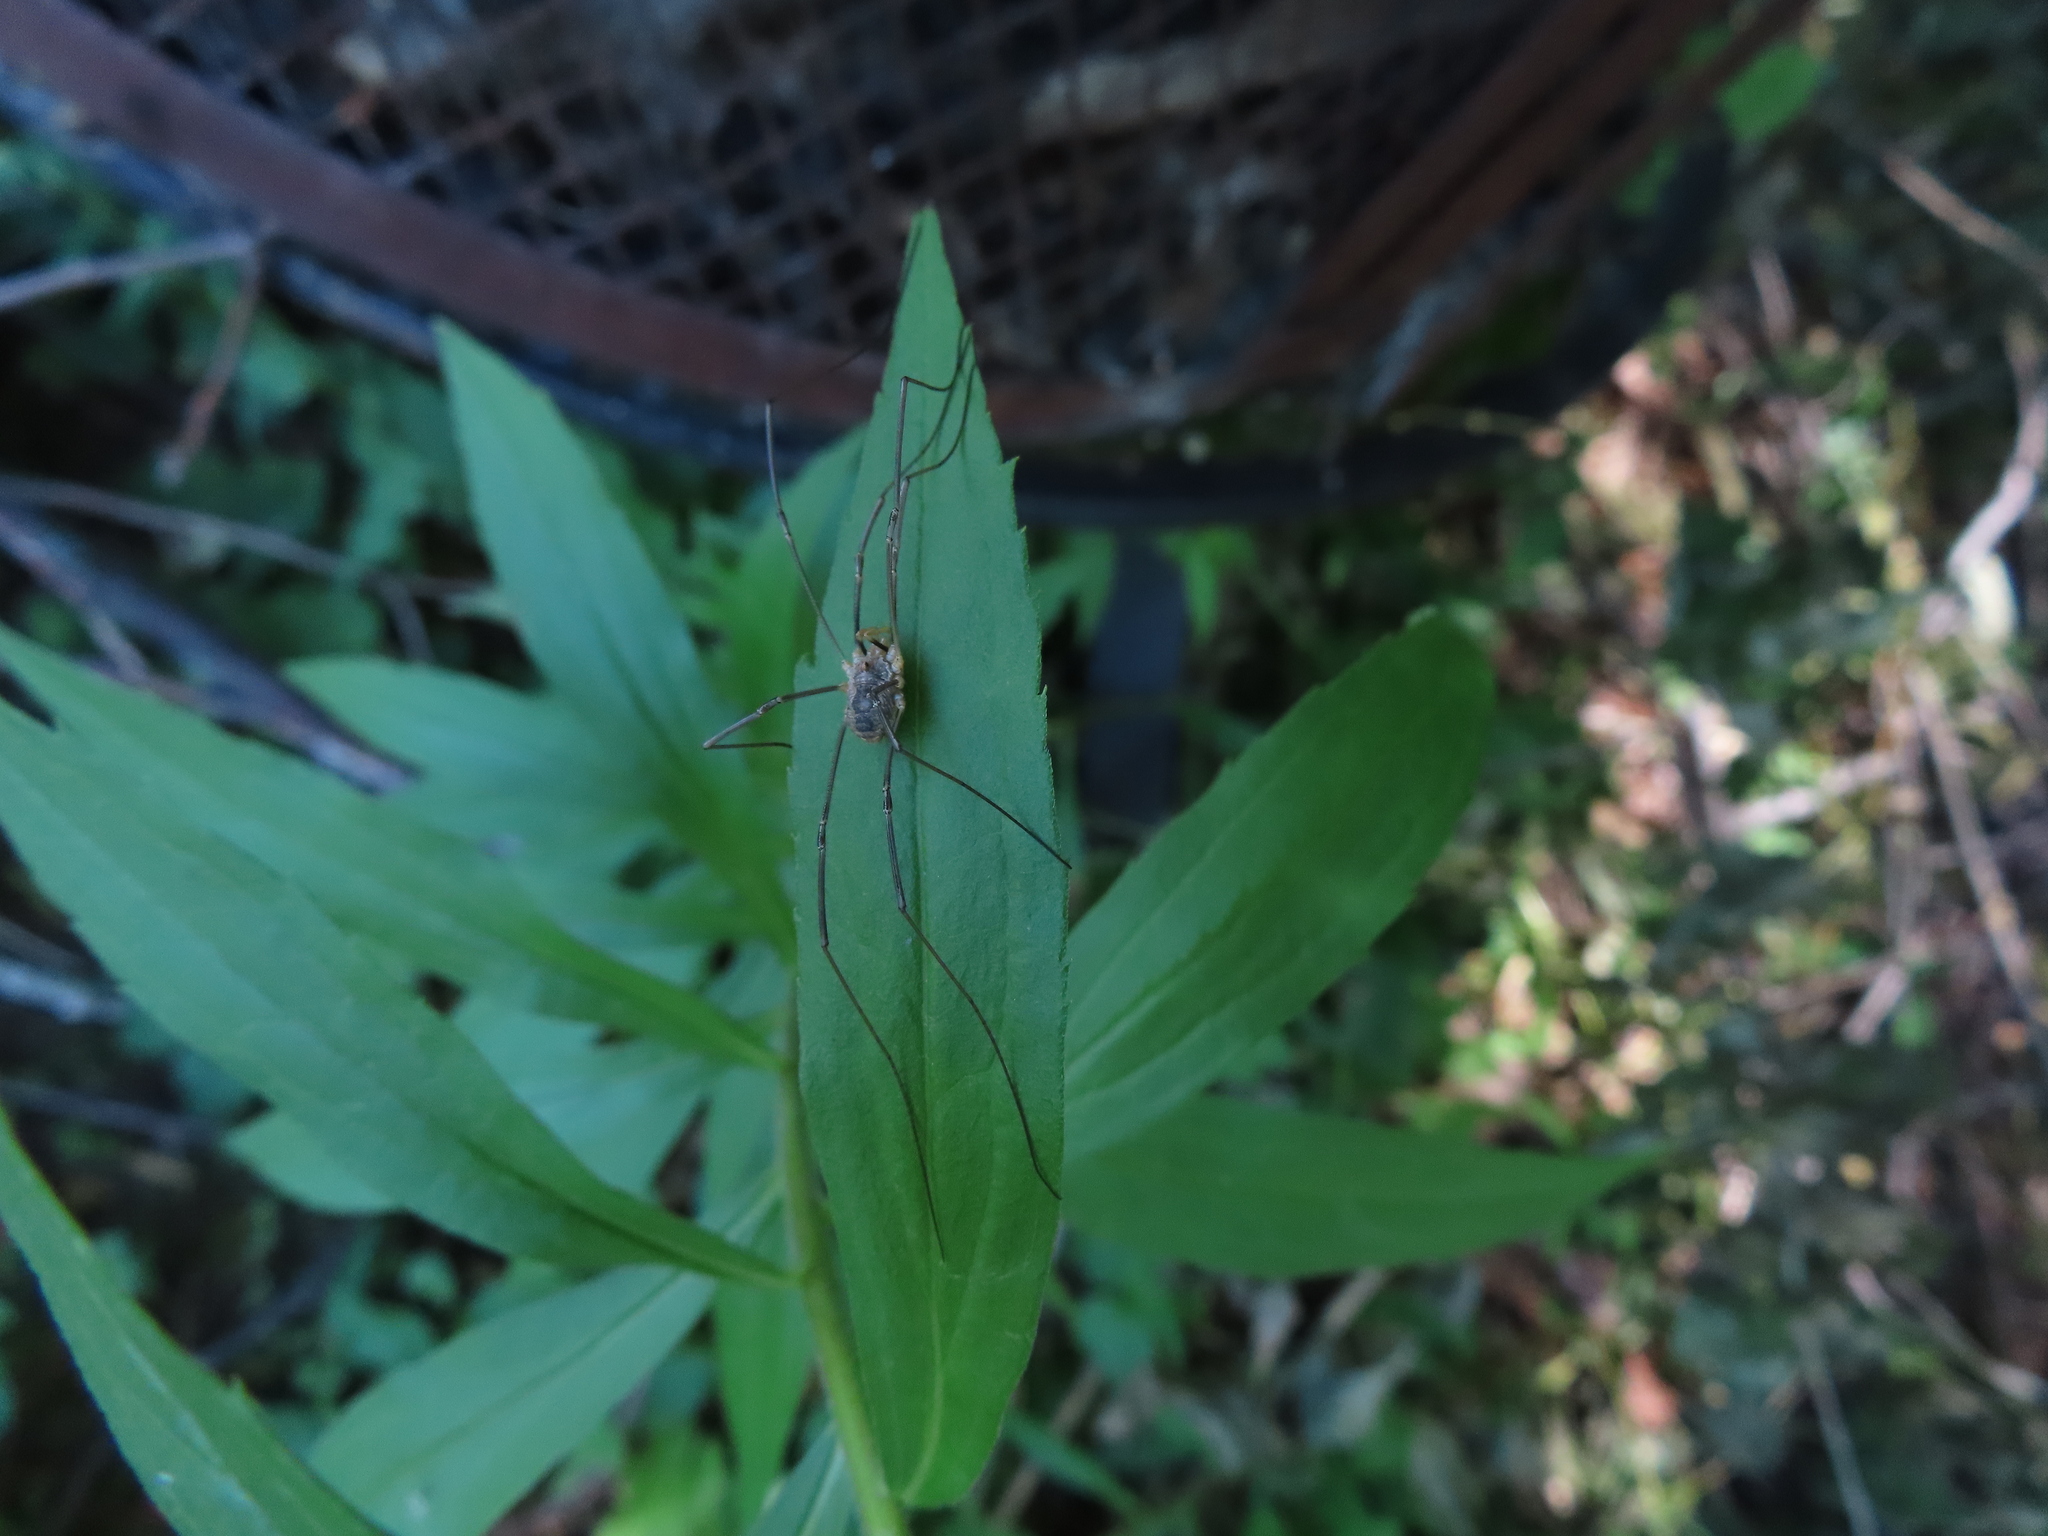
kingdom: Animalia
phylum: Arthropoda
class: Arachnida
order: Opiliones
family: Phalangiidae
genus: Phalangium
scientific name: Phalangium opilio
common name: Daddy longleg
